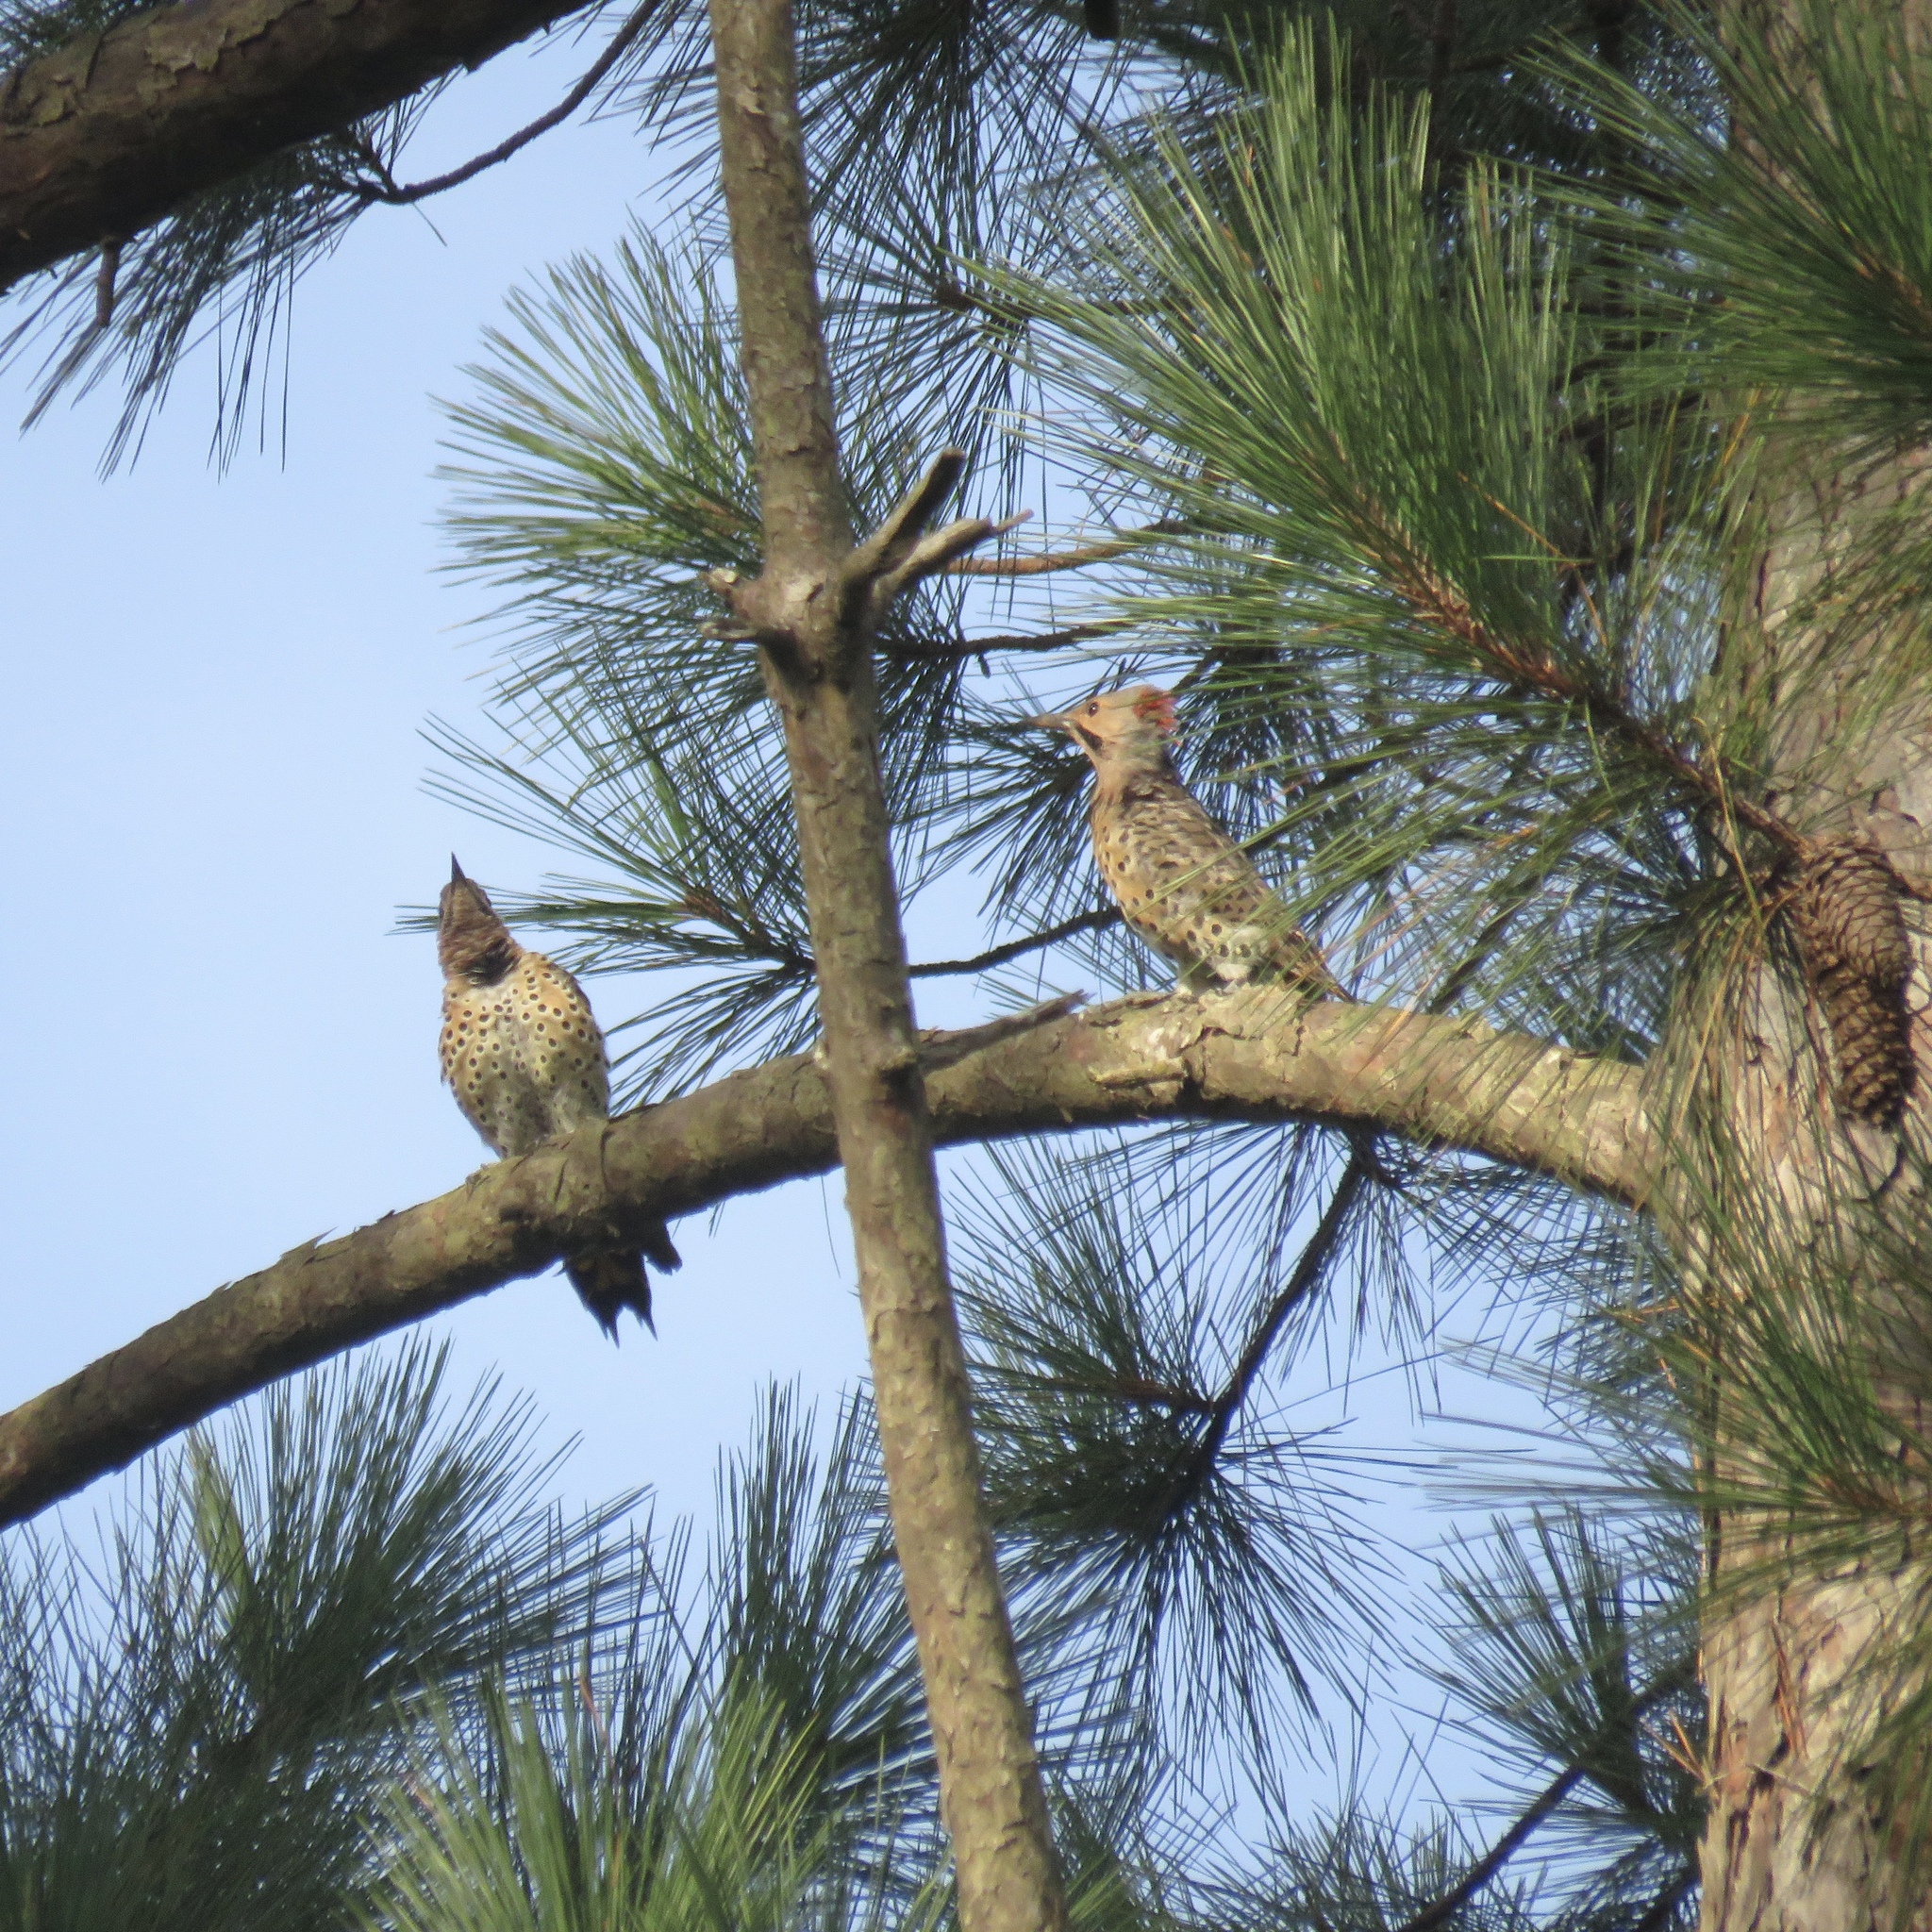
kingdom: Animalia
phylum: Chordata
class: Aves
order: Piciformes
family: Picidae
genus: Colaptes
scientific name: Colaptes auratus
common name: Northern flicker
